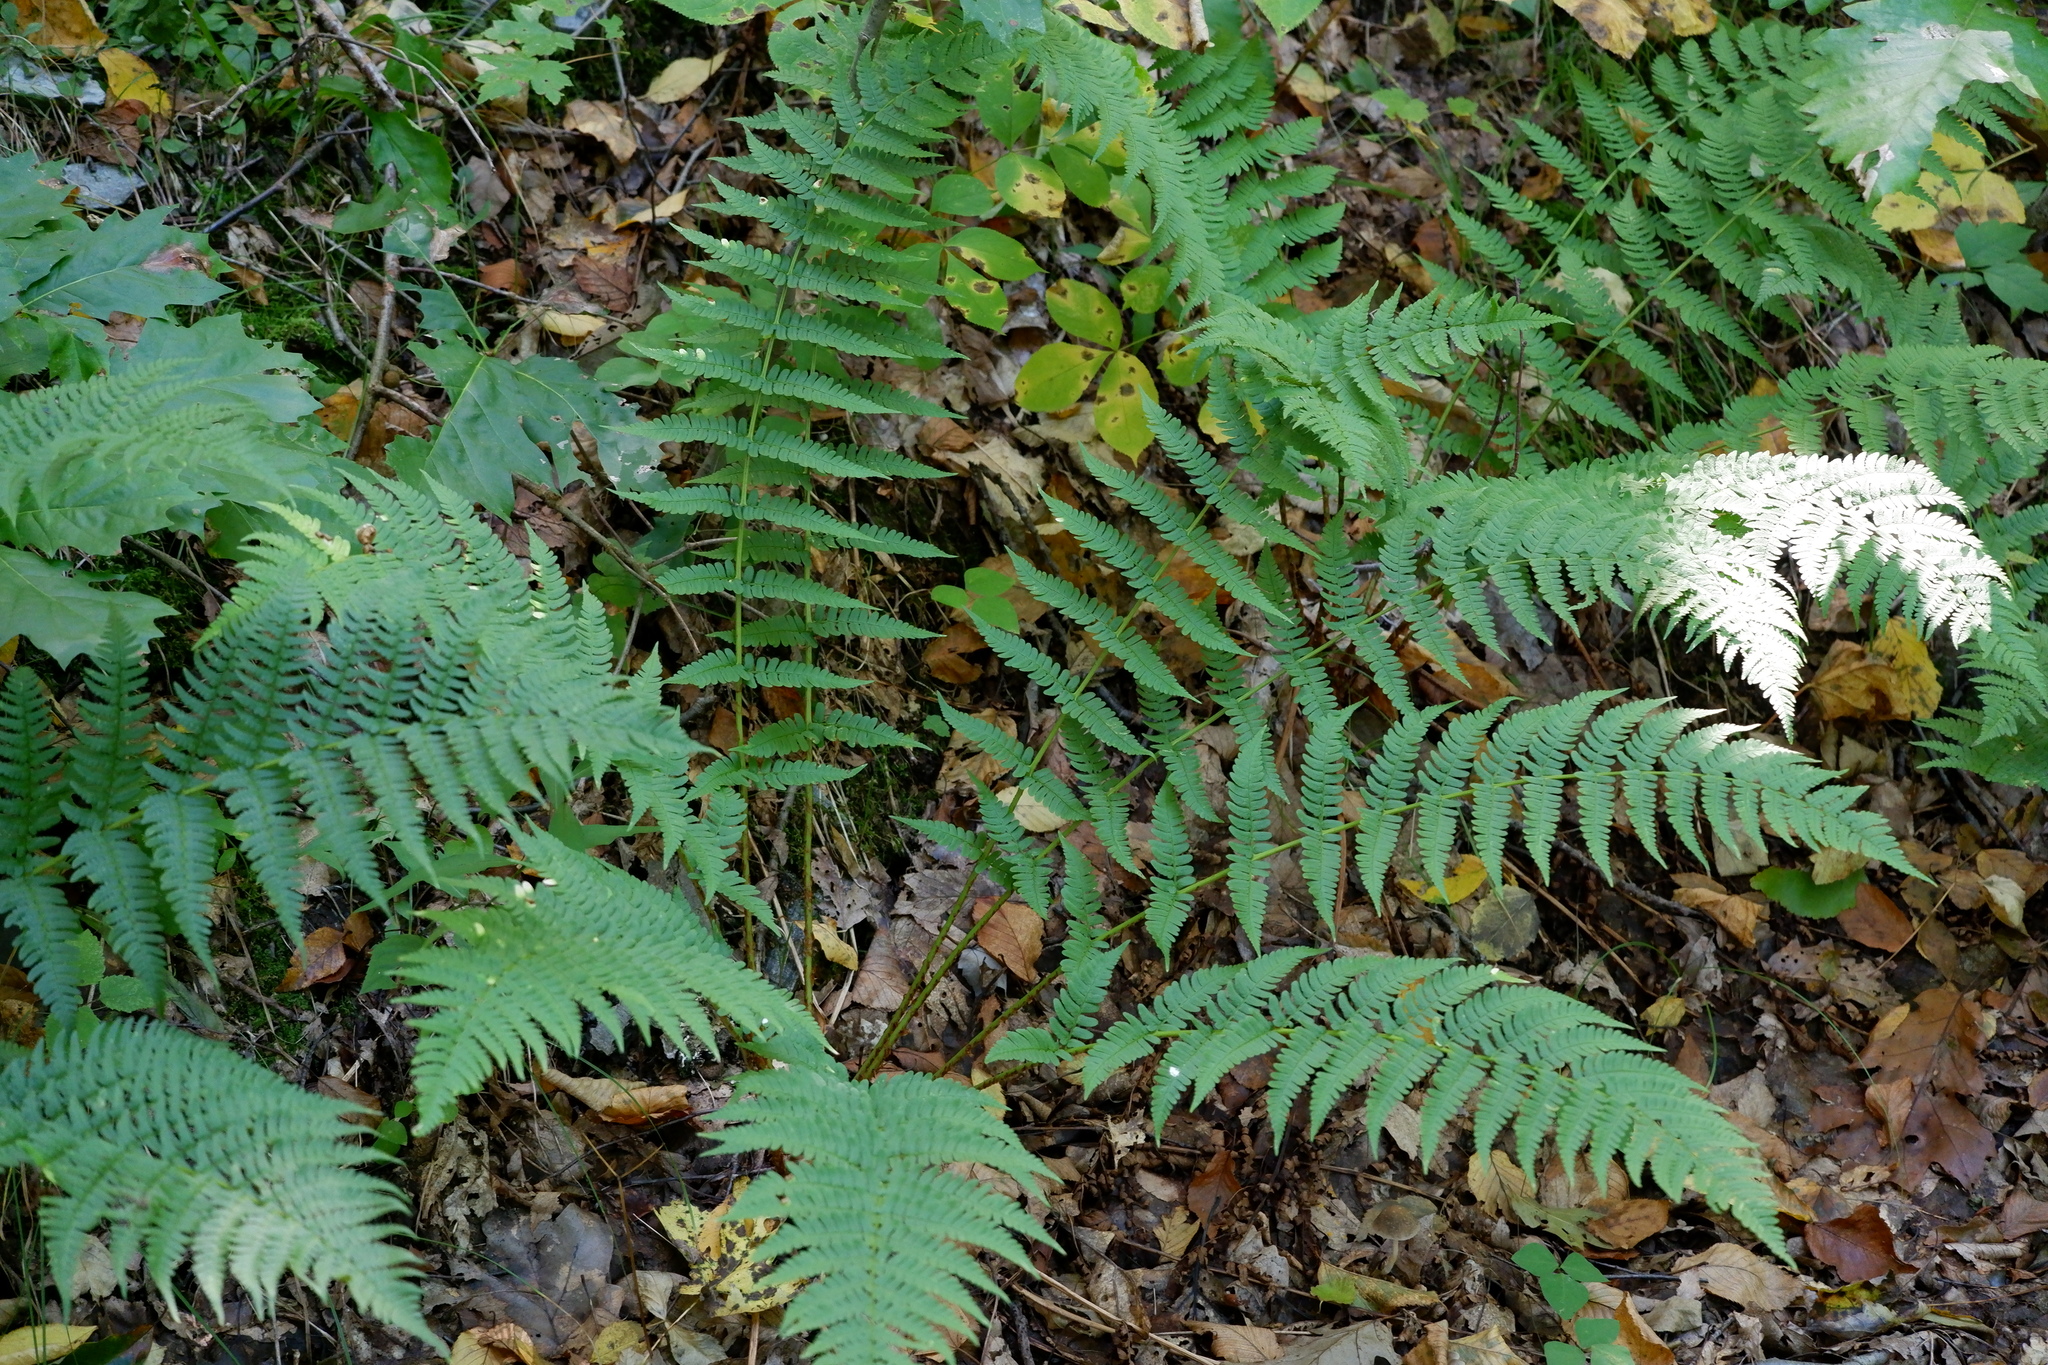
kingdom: Plantae
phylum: Tracheophyta
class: Polypodiopsida
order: Polypodiales
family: Dryopteridaceae
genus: Dryopteris
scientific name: Dryopteris marginalis
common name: Marginal wood fern
